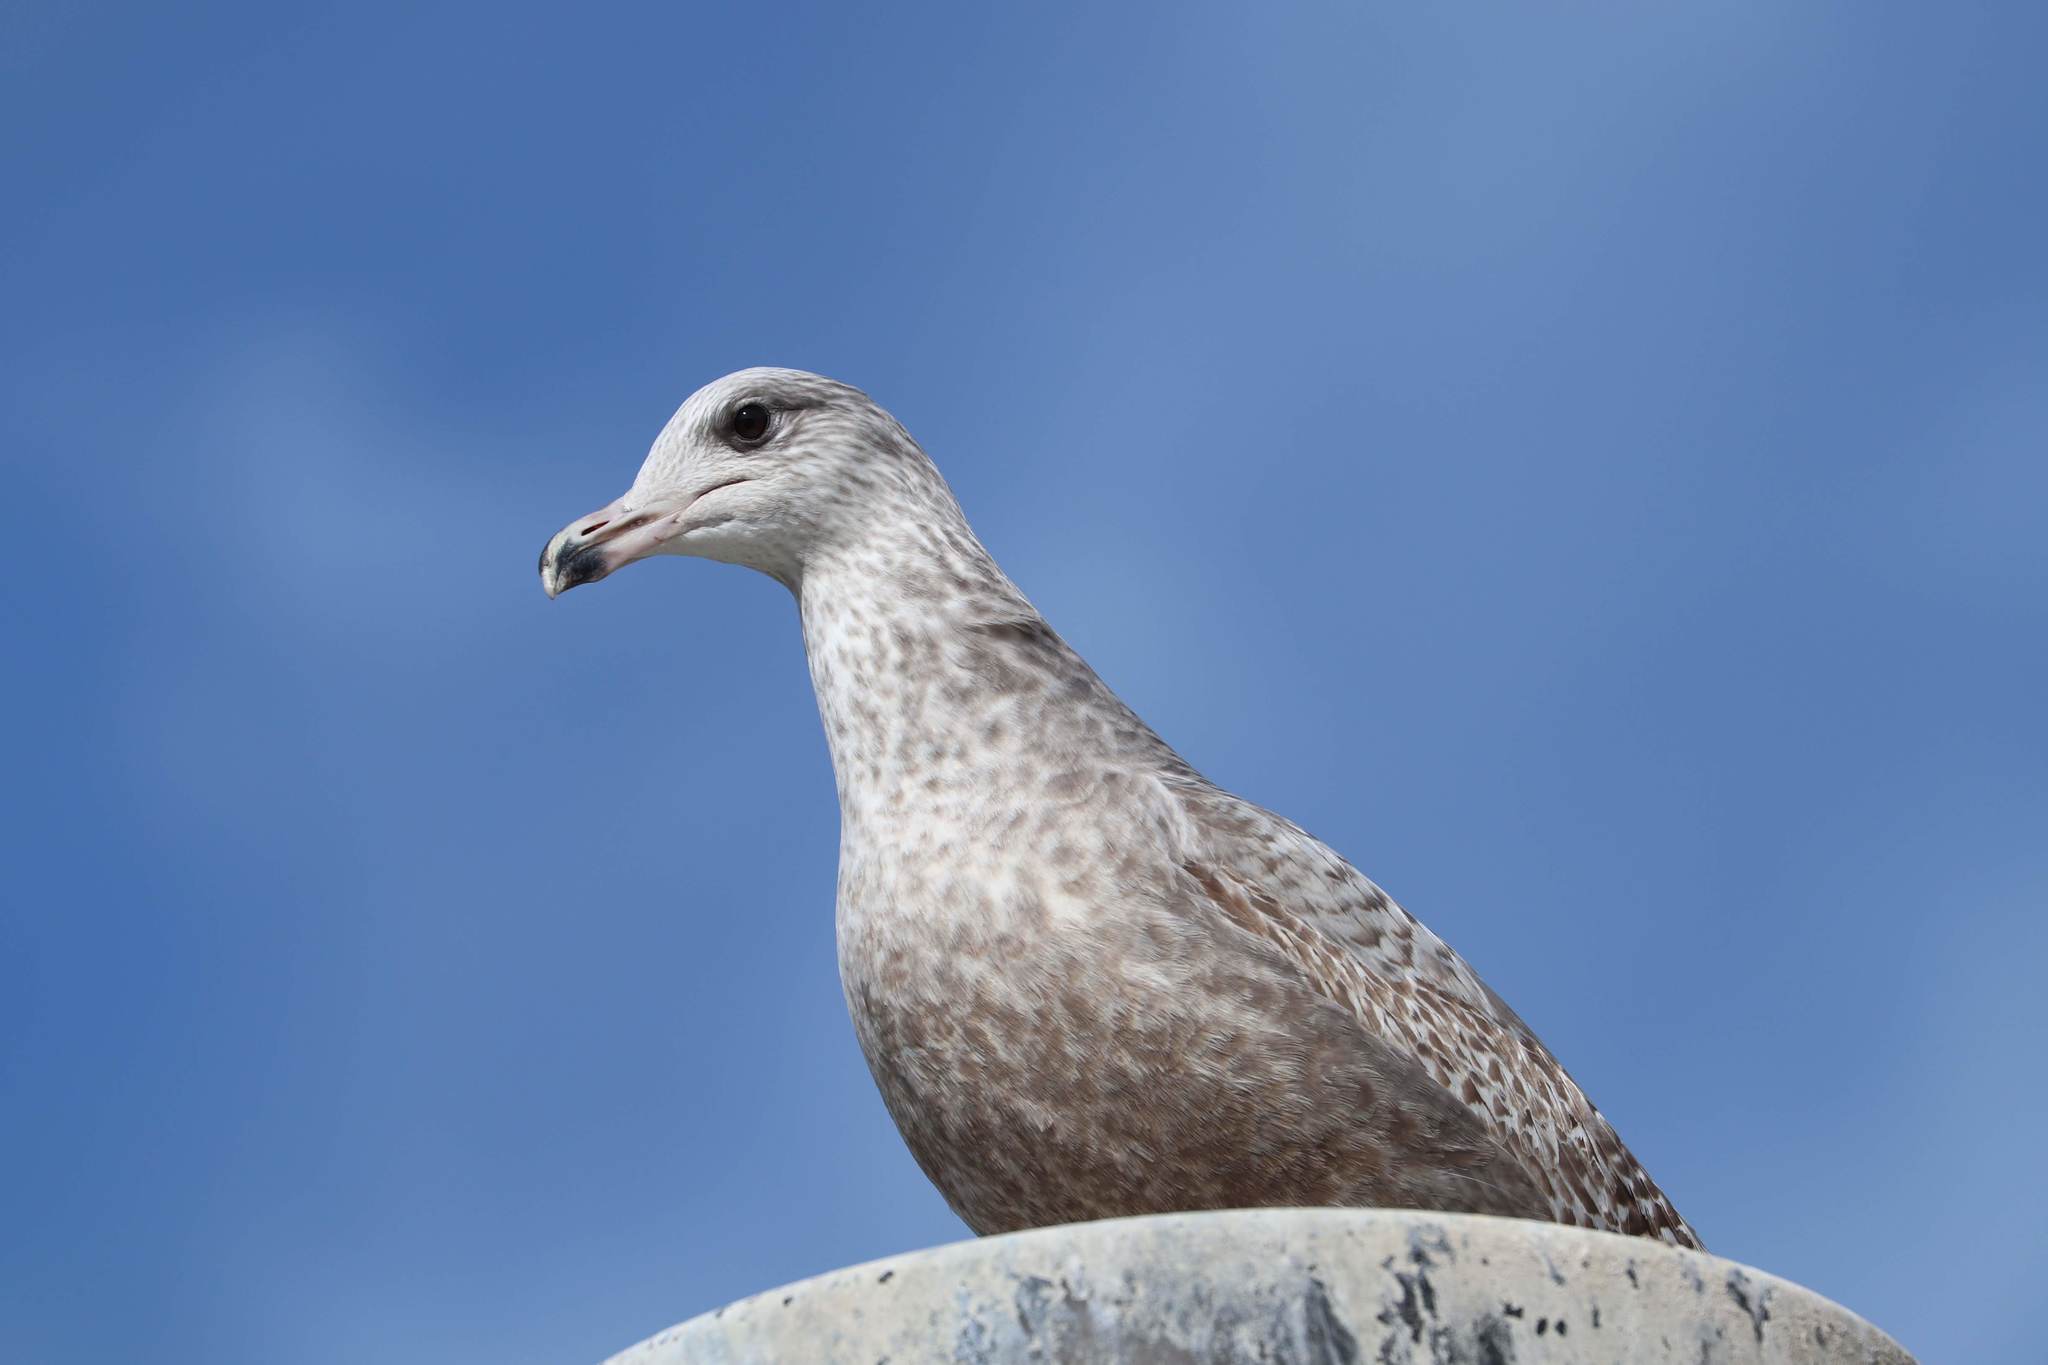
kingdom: Animalia
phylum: Chordata
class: Aves
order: Charadriiformes
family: Laridae
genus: Larus
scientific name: Larus argentatus
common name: Herring gull
